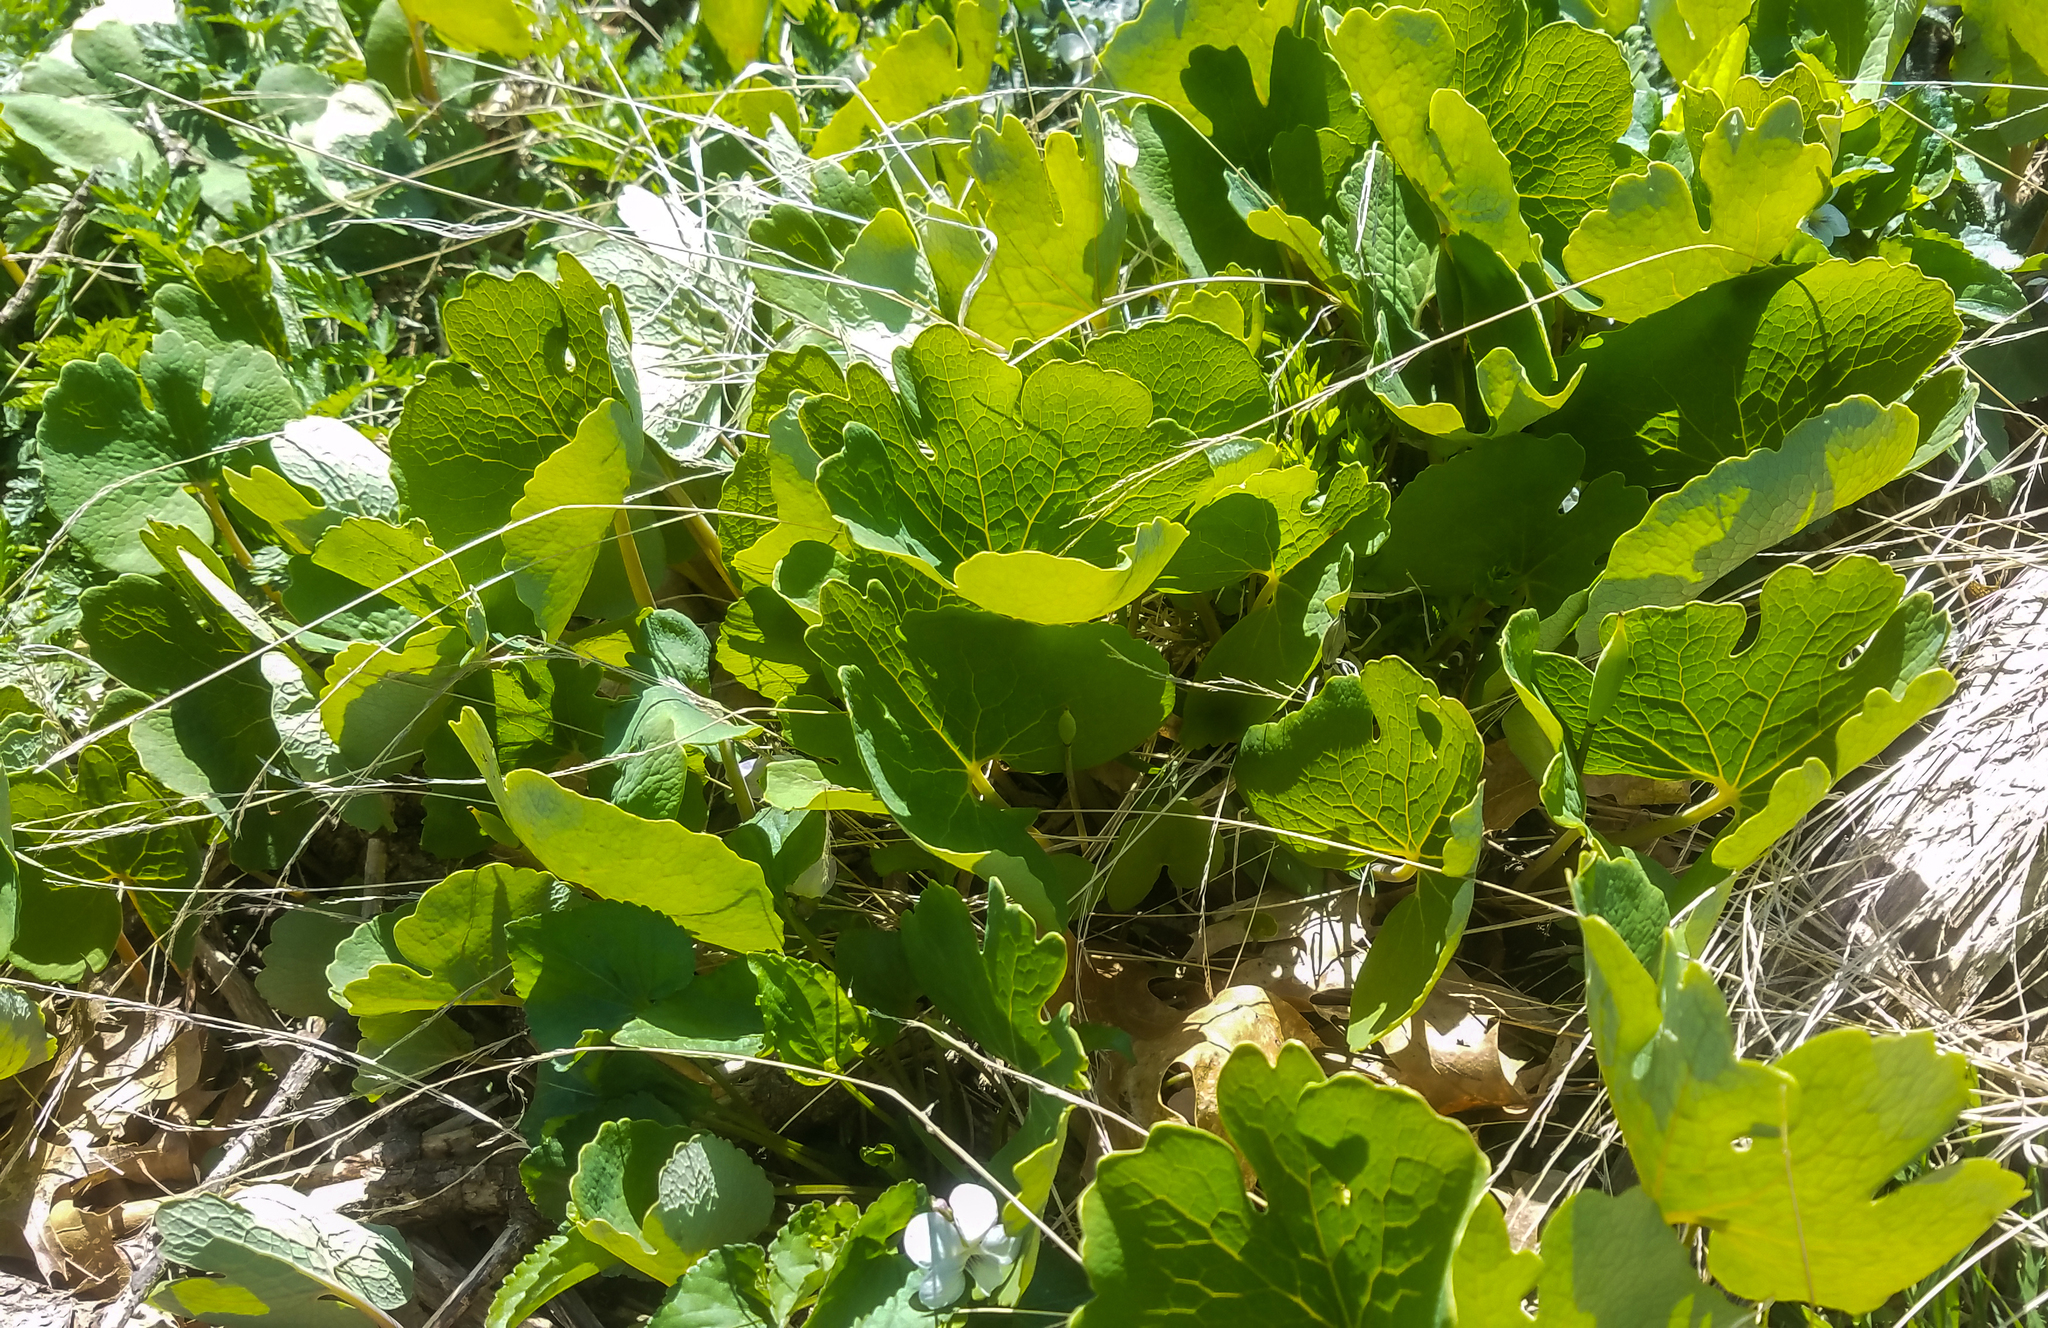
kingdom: Plantae
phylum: Tracheophyta
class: Magnoliopsida
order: Ranunculales
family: Papaveraceae
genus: Sanguinaria
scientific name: Sanguinaria canadensis
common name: Bloodroot
